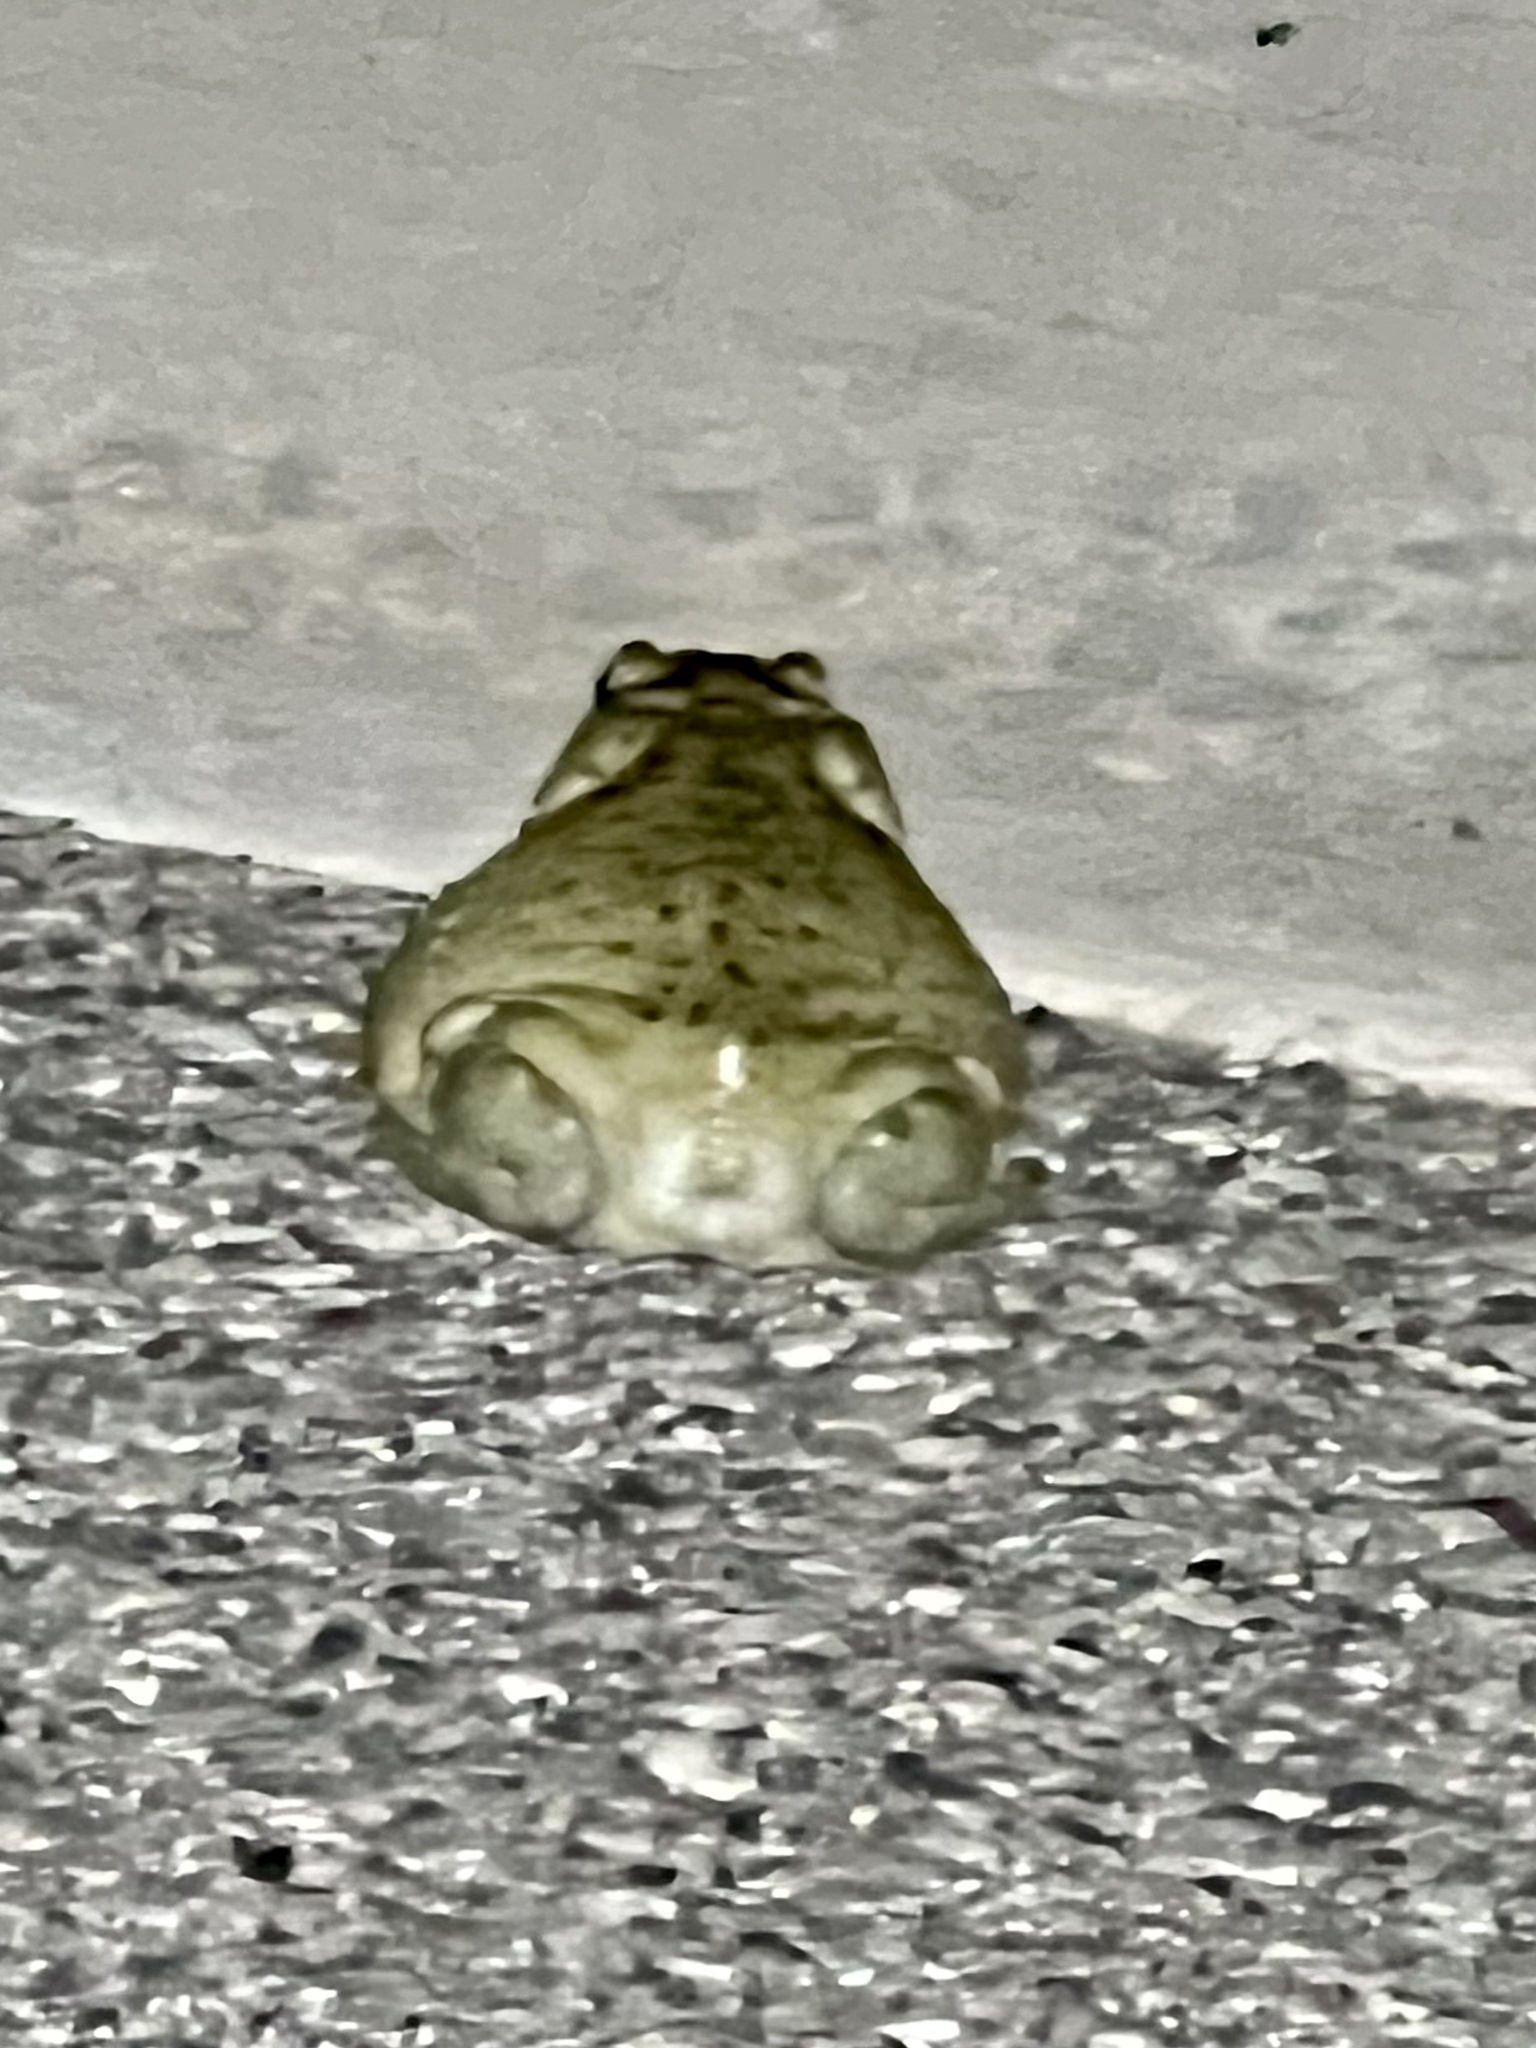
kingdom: Animalia
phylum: Chordata
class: Amphibia
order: Anura
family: Bufonidae
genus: Incilius
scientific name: Incilius alvarius
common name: Sonoran desert toad
